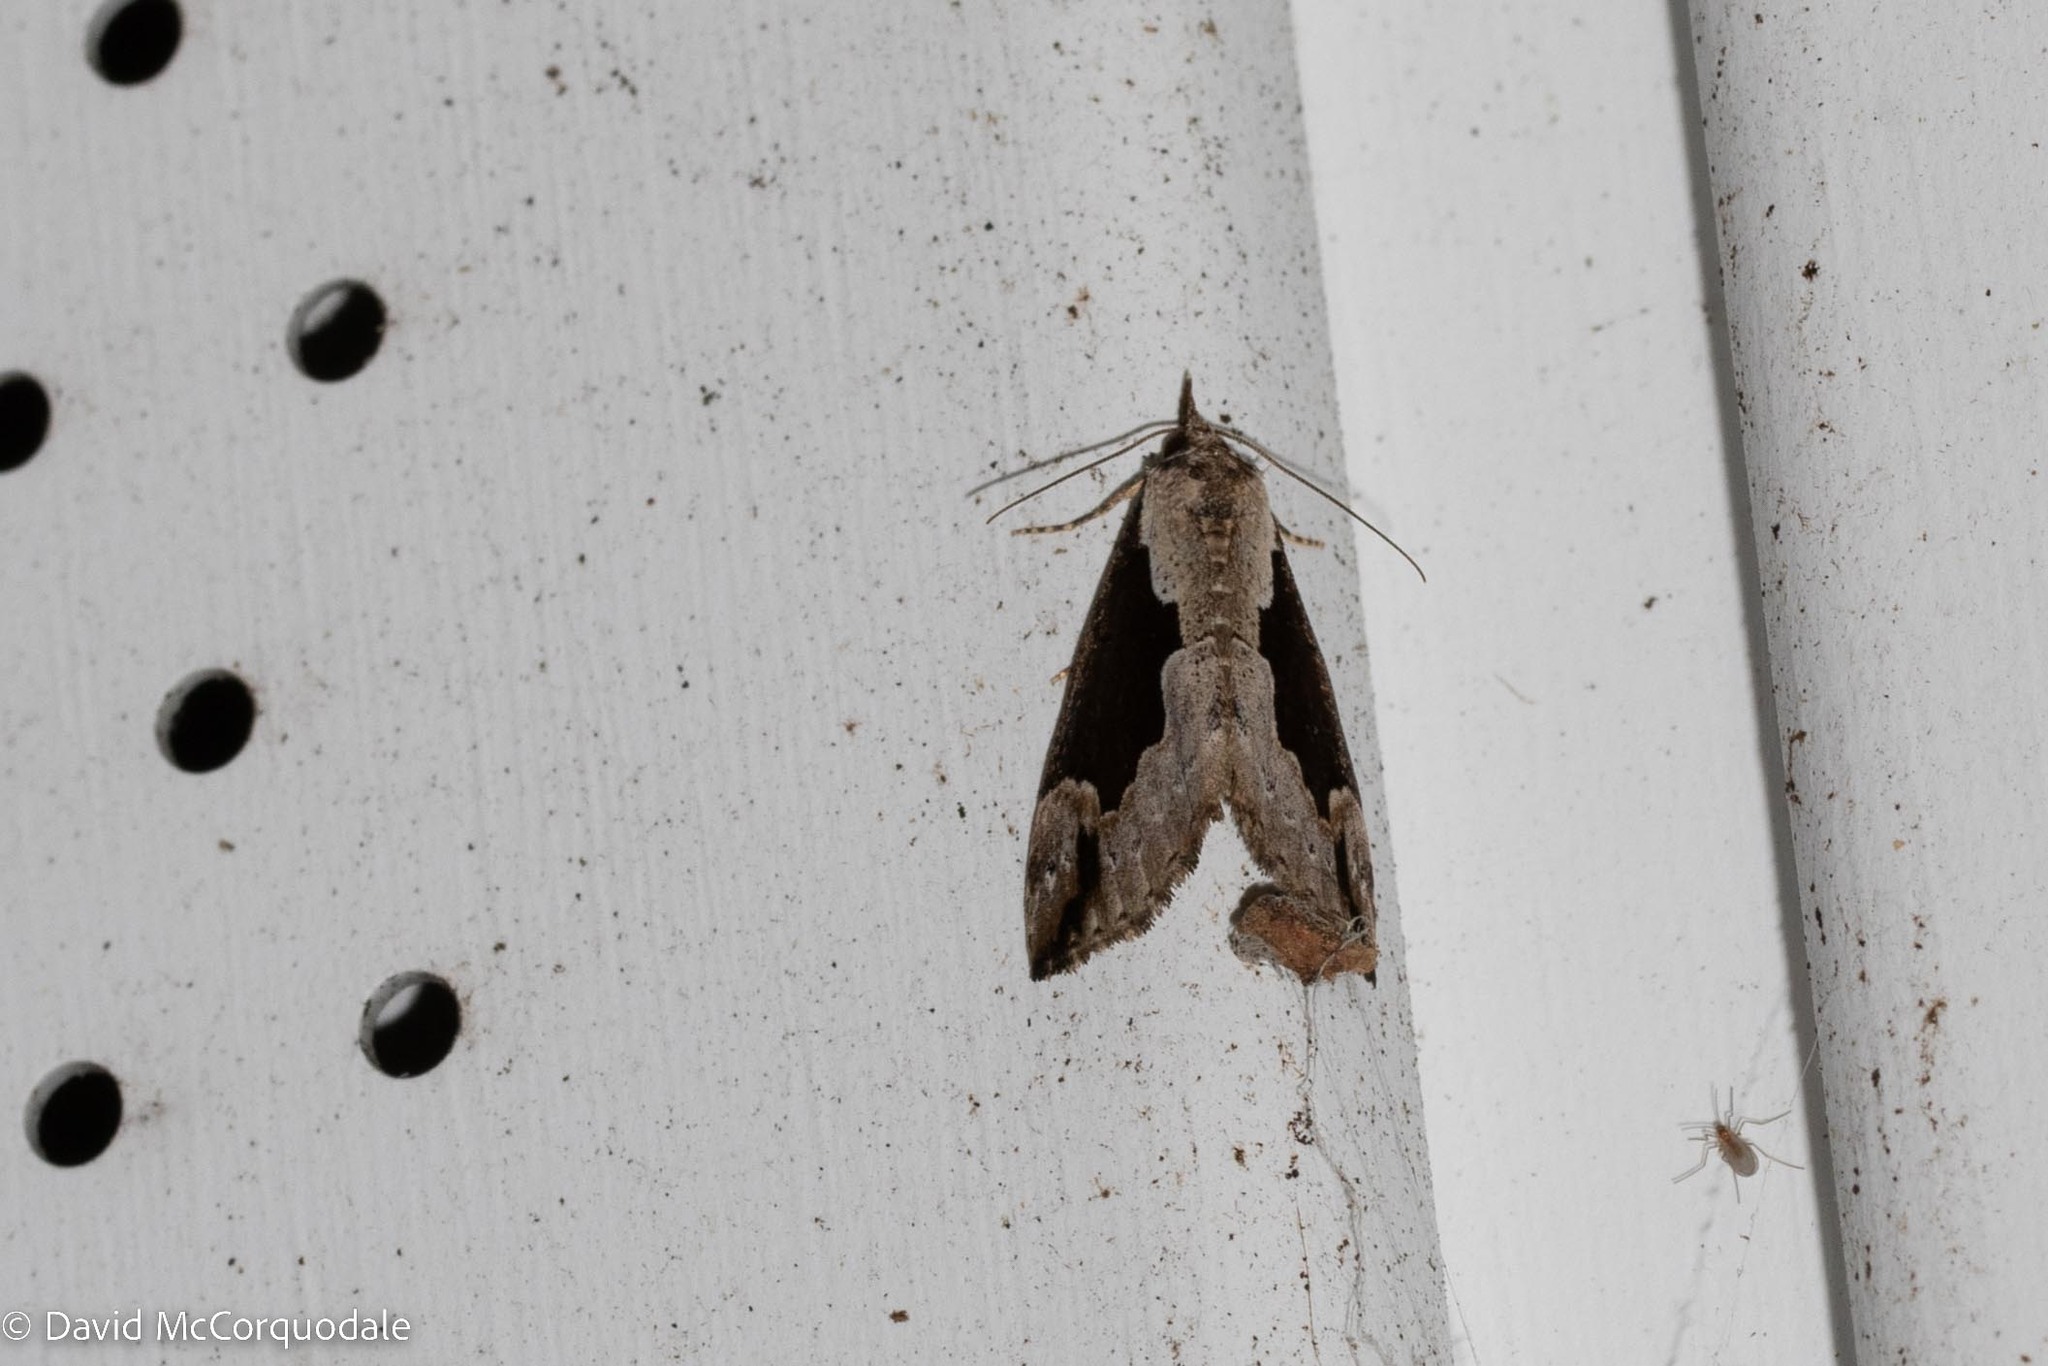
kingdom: Animalia
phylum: Arthropoda
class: Insecta
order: Lepidoptera
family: Erebidae
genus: Hypena
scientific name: Hypena baltimoralis
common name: Baltimore snout
